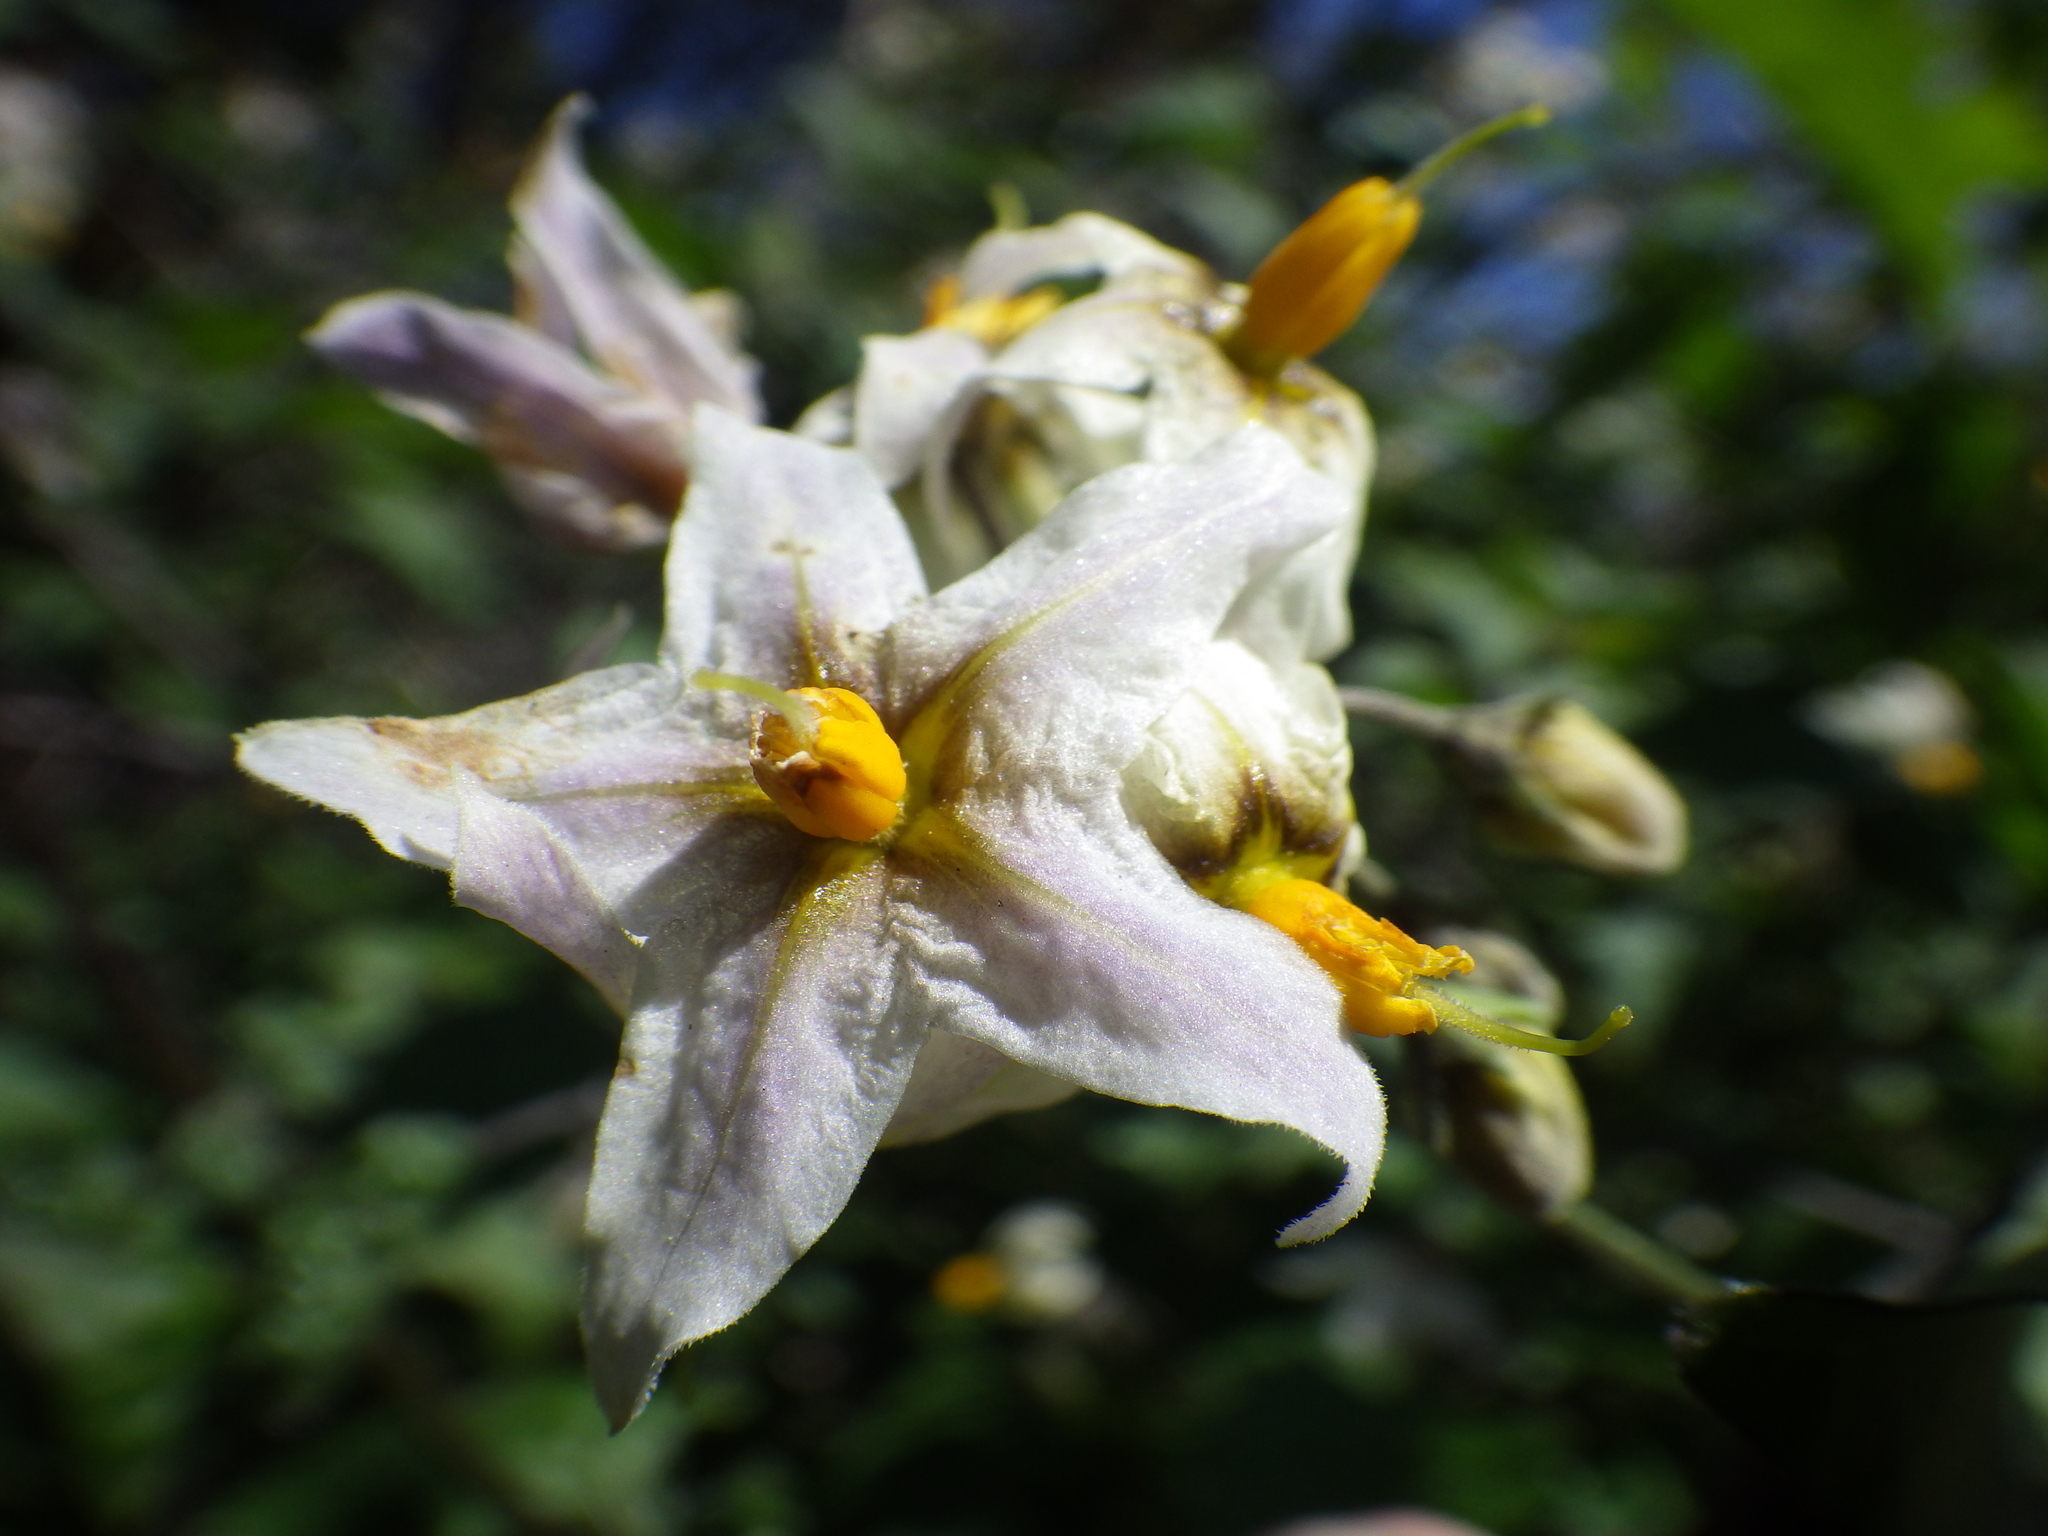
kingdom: Plantae
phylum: Tracheophyta
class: Magnoliopsida
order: Solanales
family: Solanaceae
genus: Solanum
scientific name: Solanum douglasii
